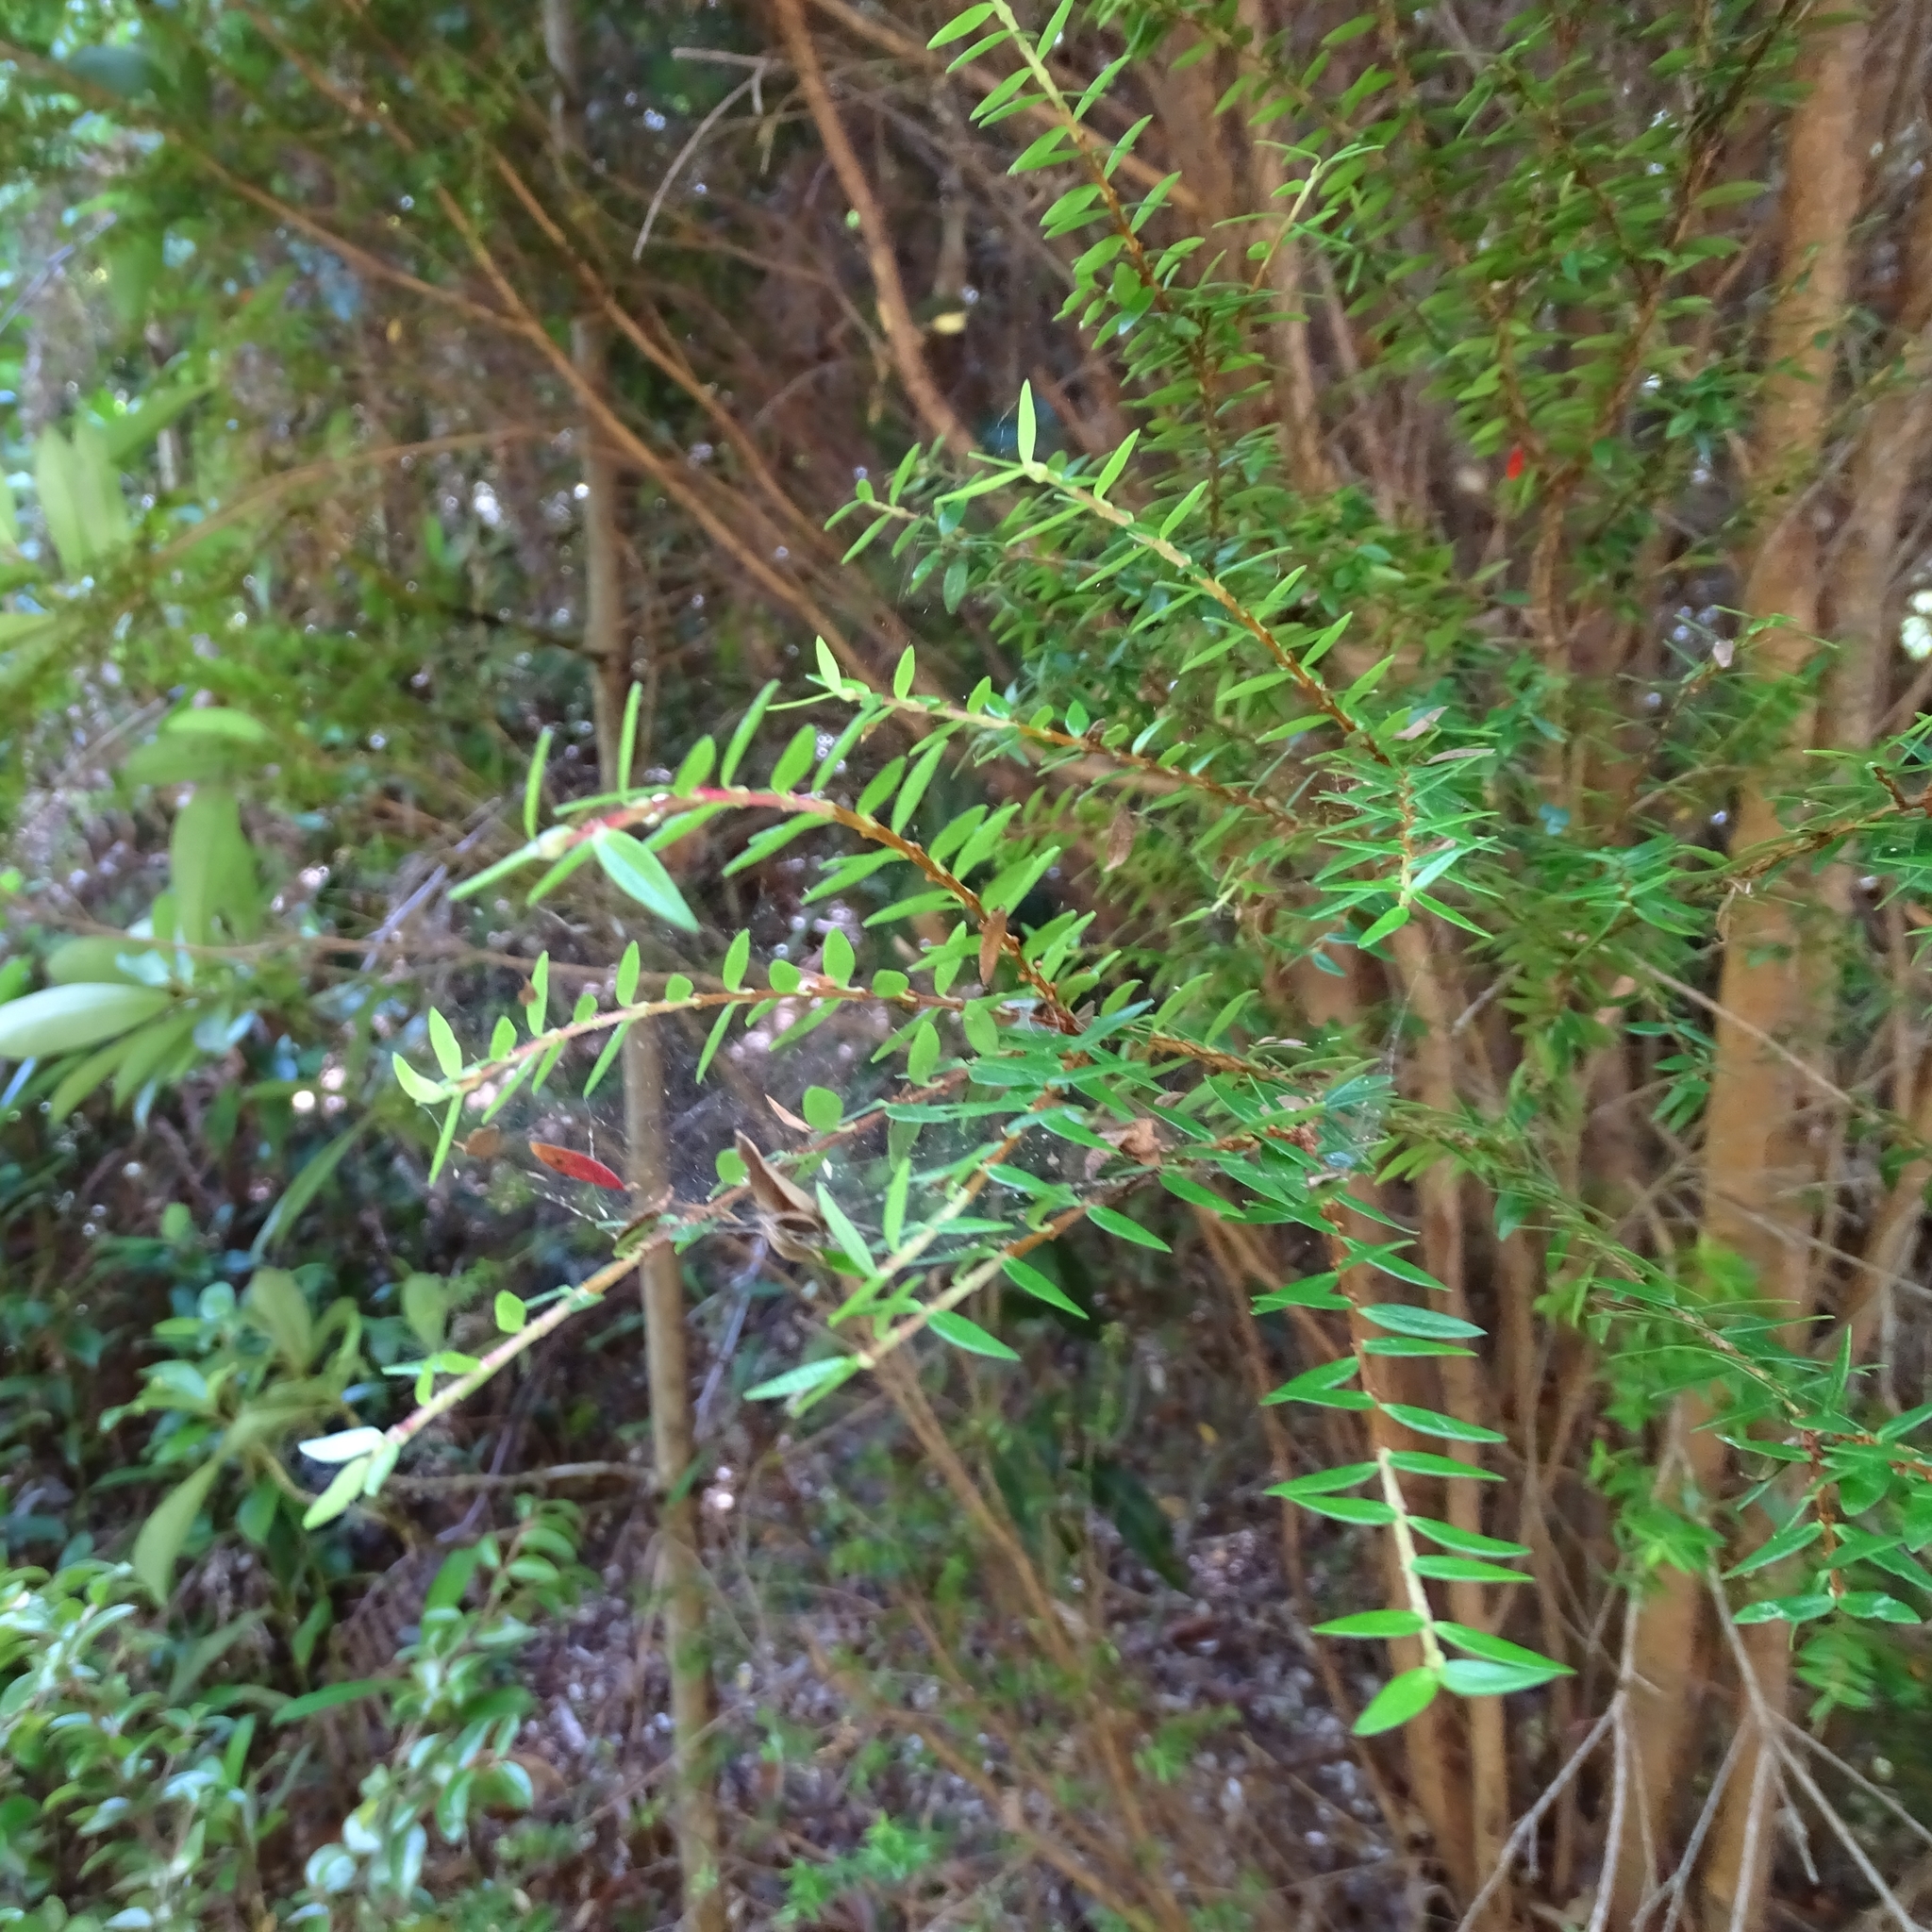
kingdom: Plantae
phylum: Tracheophyta
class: Magnoliopsida
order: Myrtales
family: Myrtaceae
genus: Tepualia
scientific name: Tepualia stipularis
